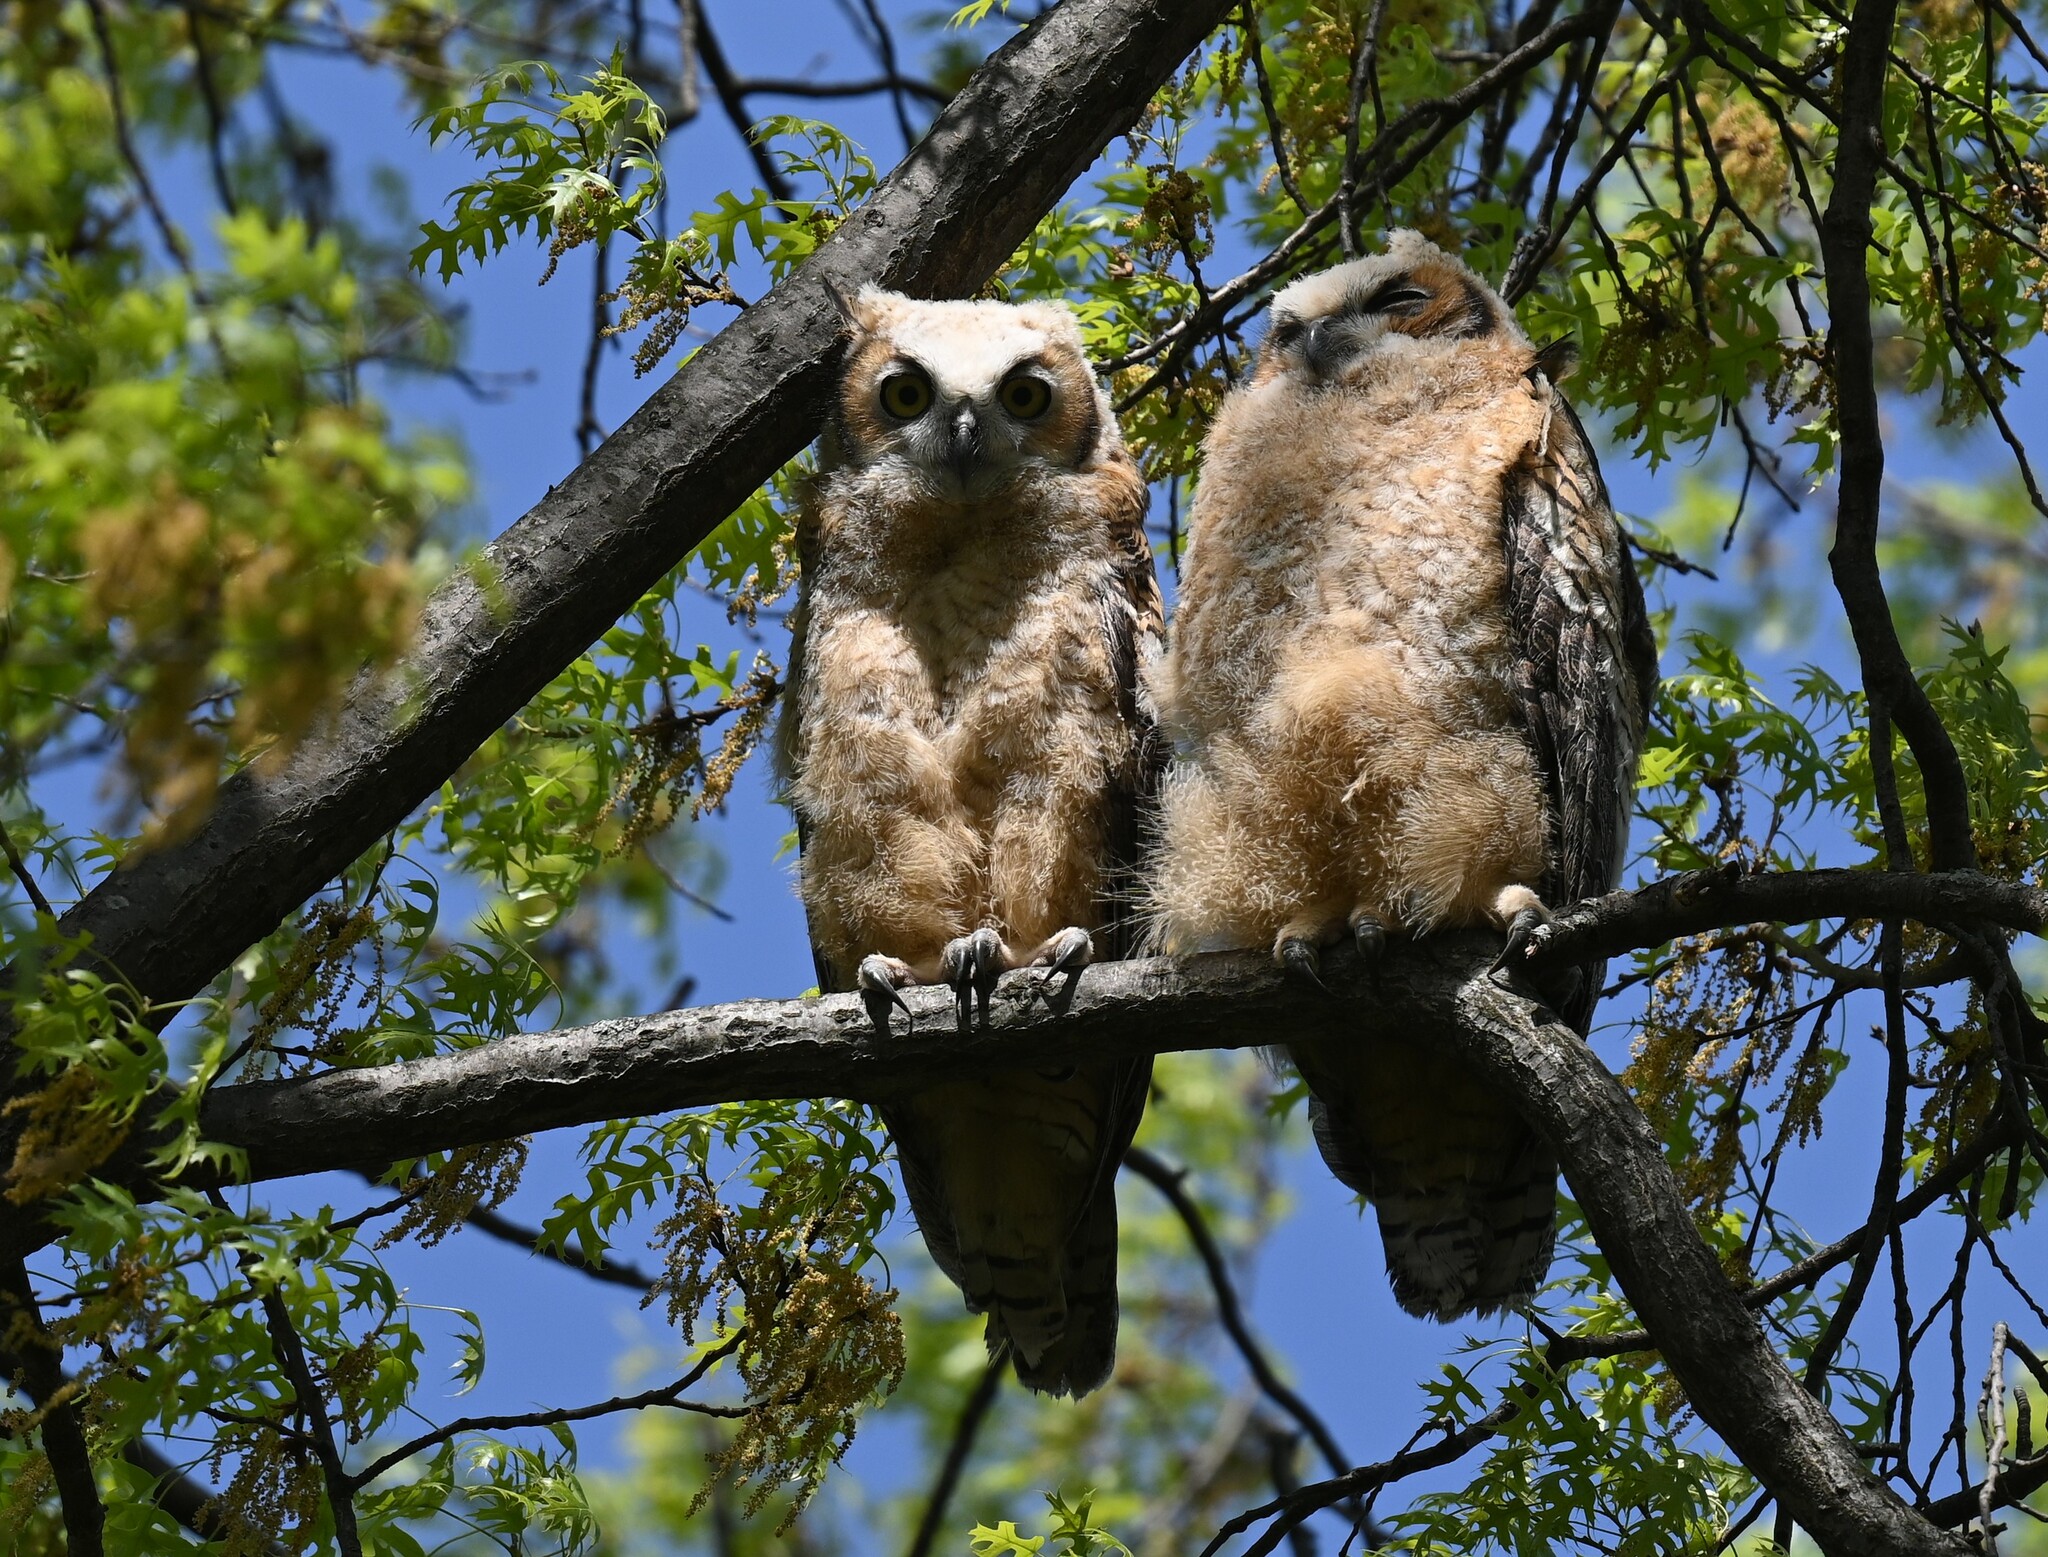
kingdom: Animalia
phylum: Chordata
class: Aves
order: Strigiformes
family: Strigidae
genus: Bubo
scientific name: Bubo virginianus
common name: Great horned owl
